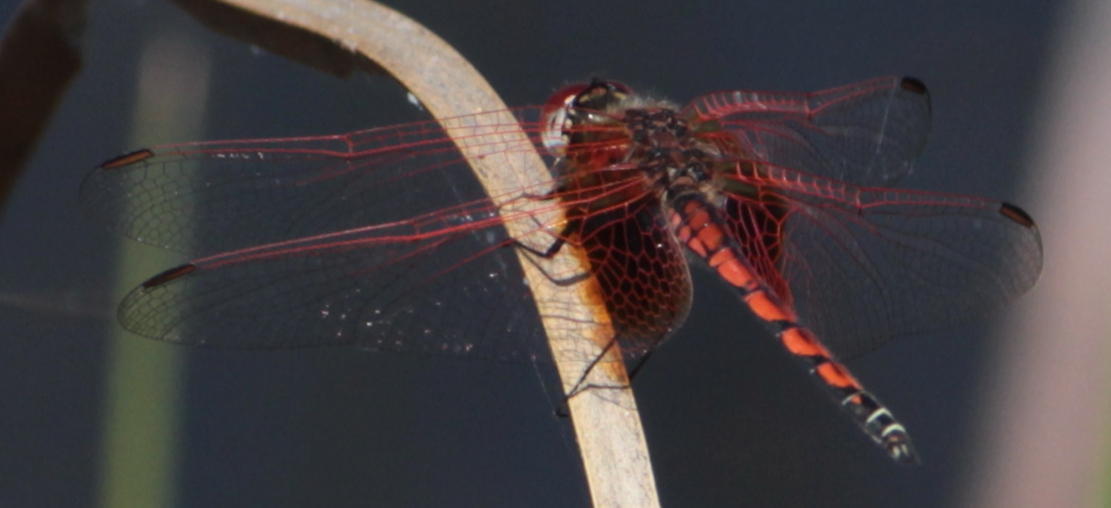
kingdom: Animalia
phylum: Arthropoda
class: Insecta
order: Odonata
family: Libellulidae
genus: Trithemis
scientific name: Trithemis monardi
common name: Monard's dropwing
